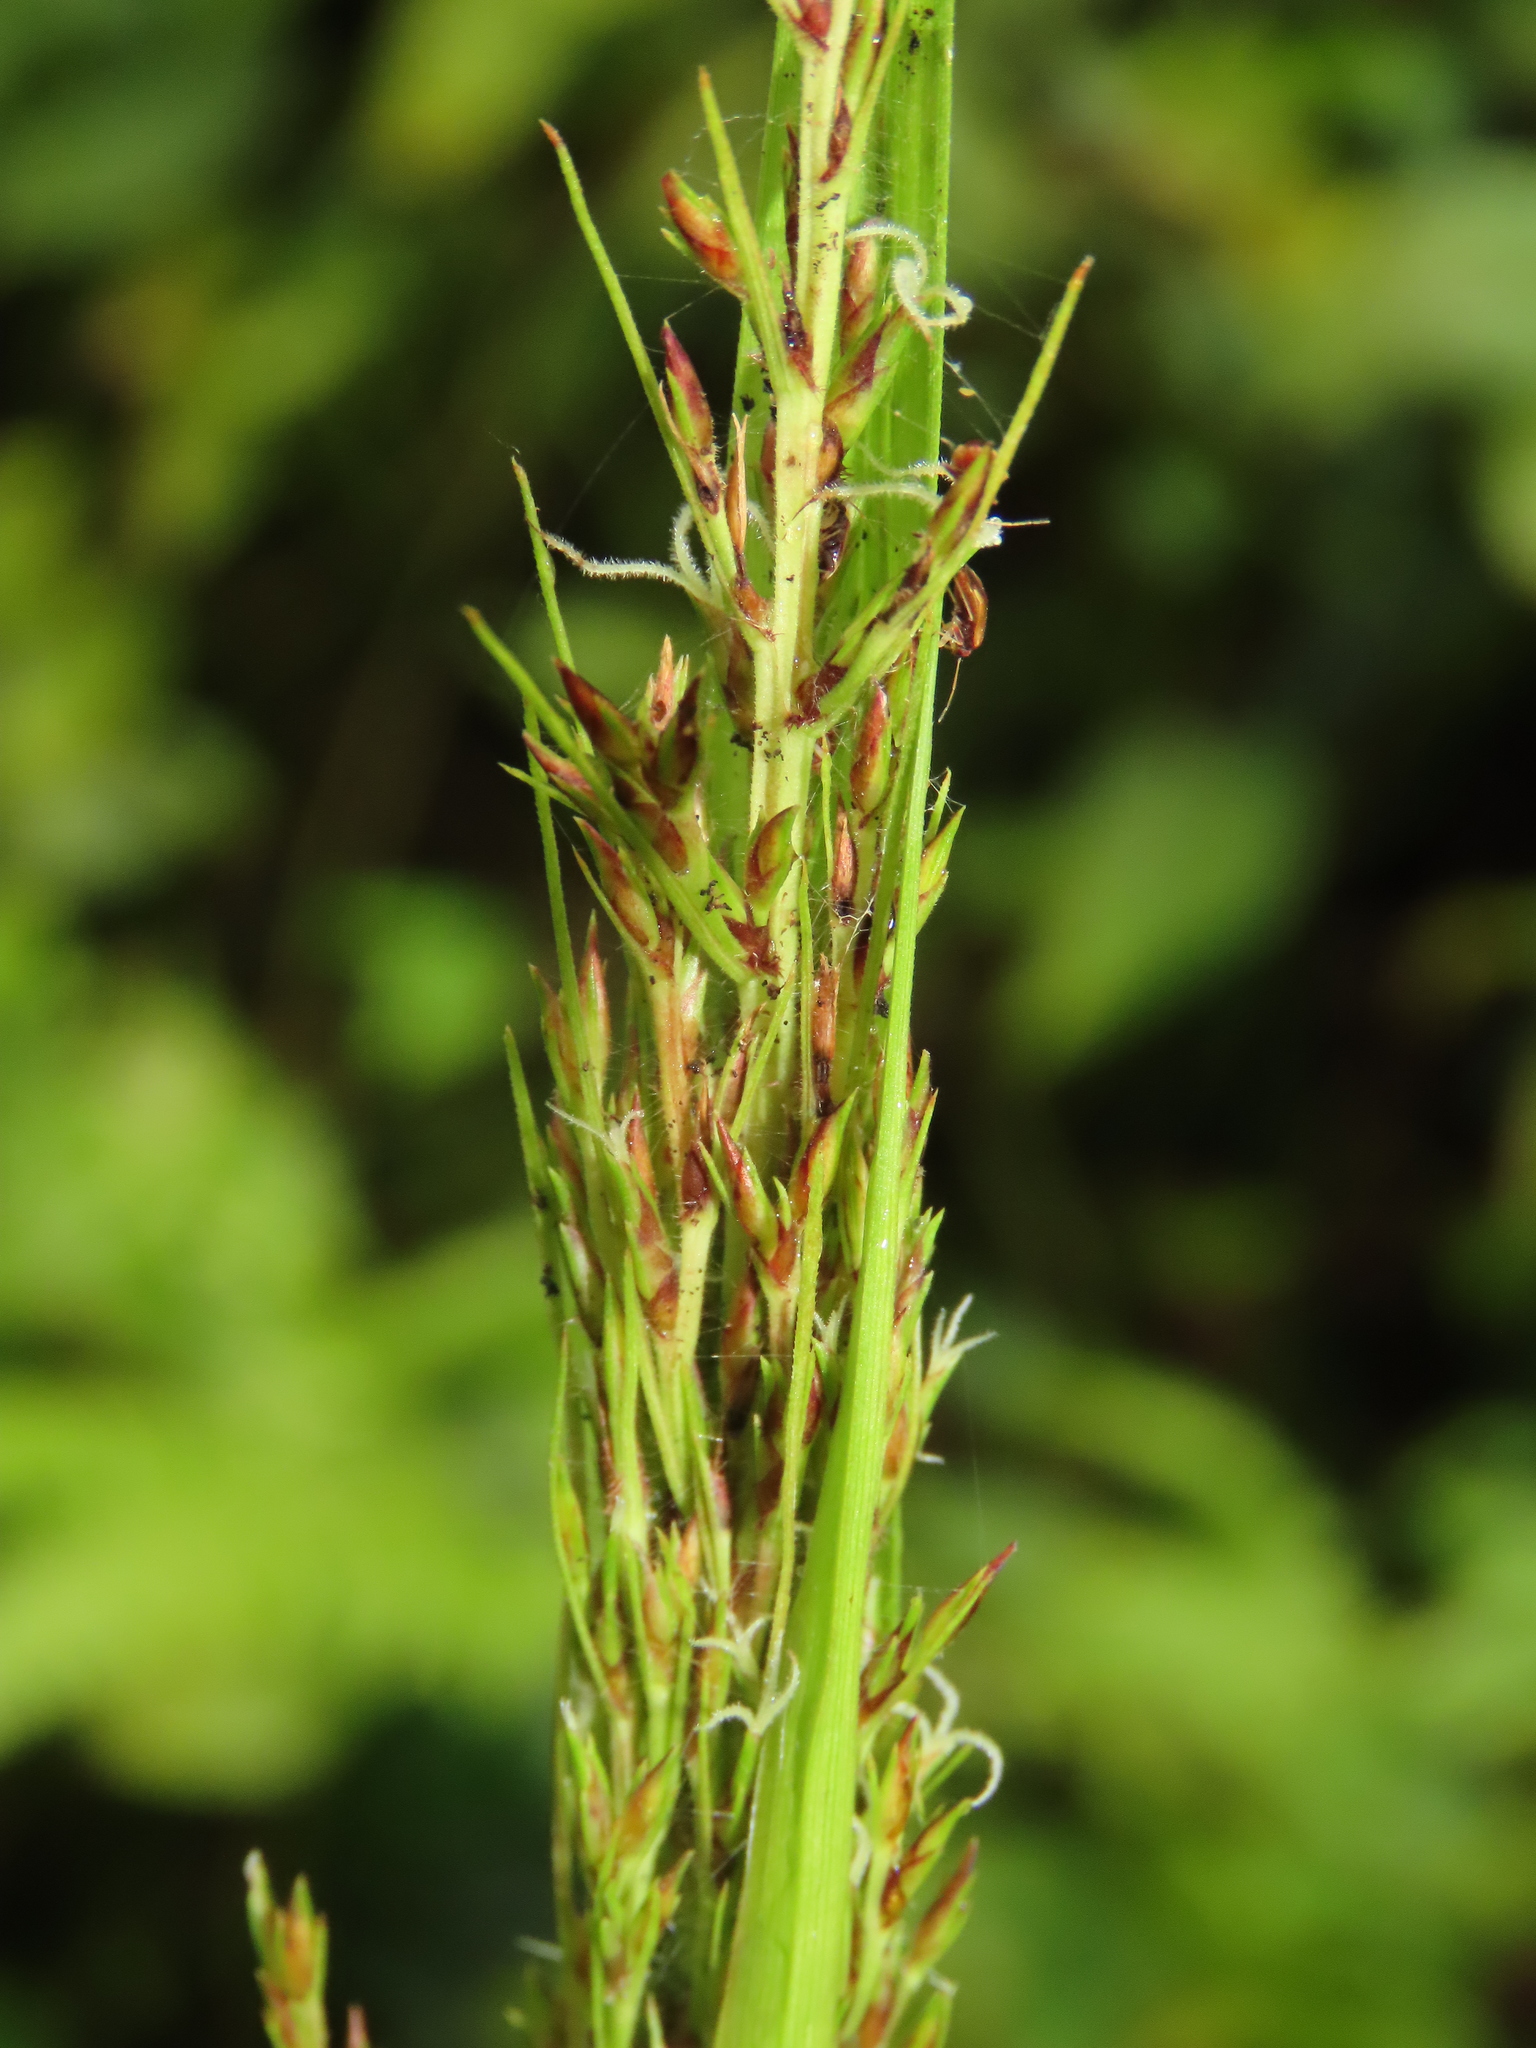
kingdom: Plantae
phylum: Tracheophyta
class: Liliopsida
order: Poales
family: Cyperaceae
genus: Scleria
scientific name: Scleria terrestris
